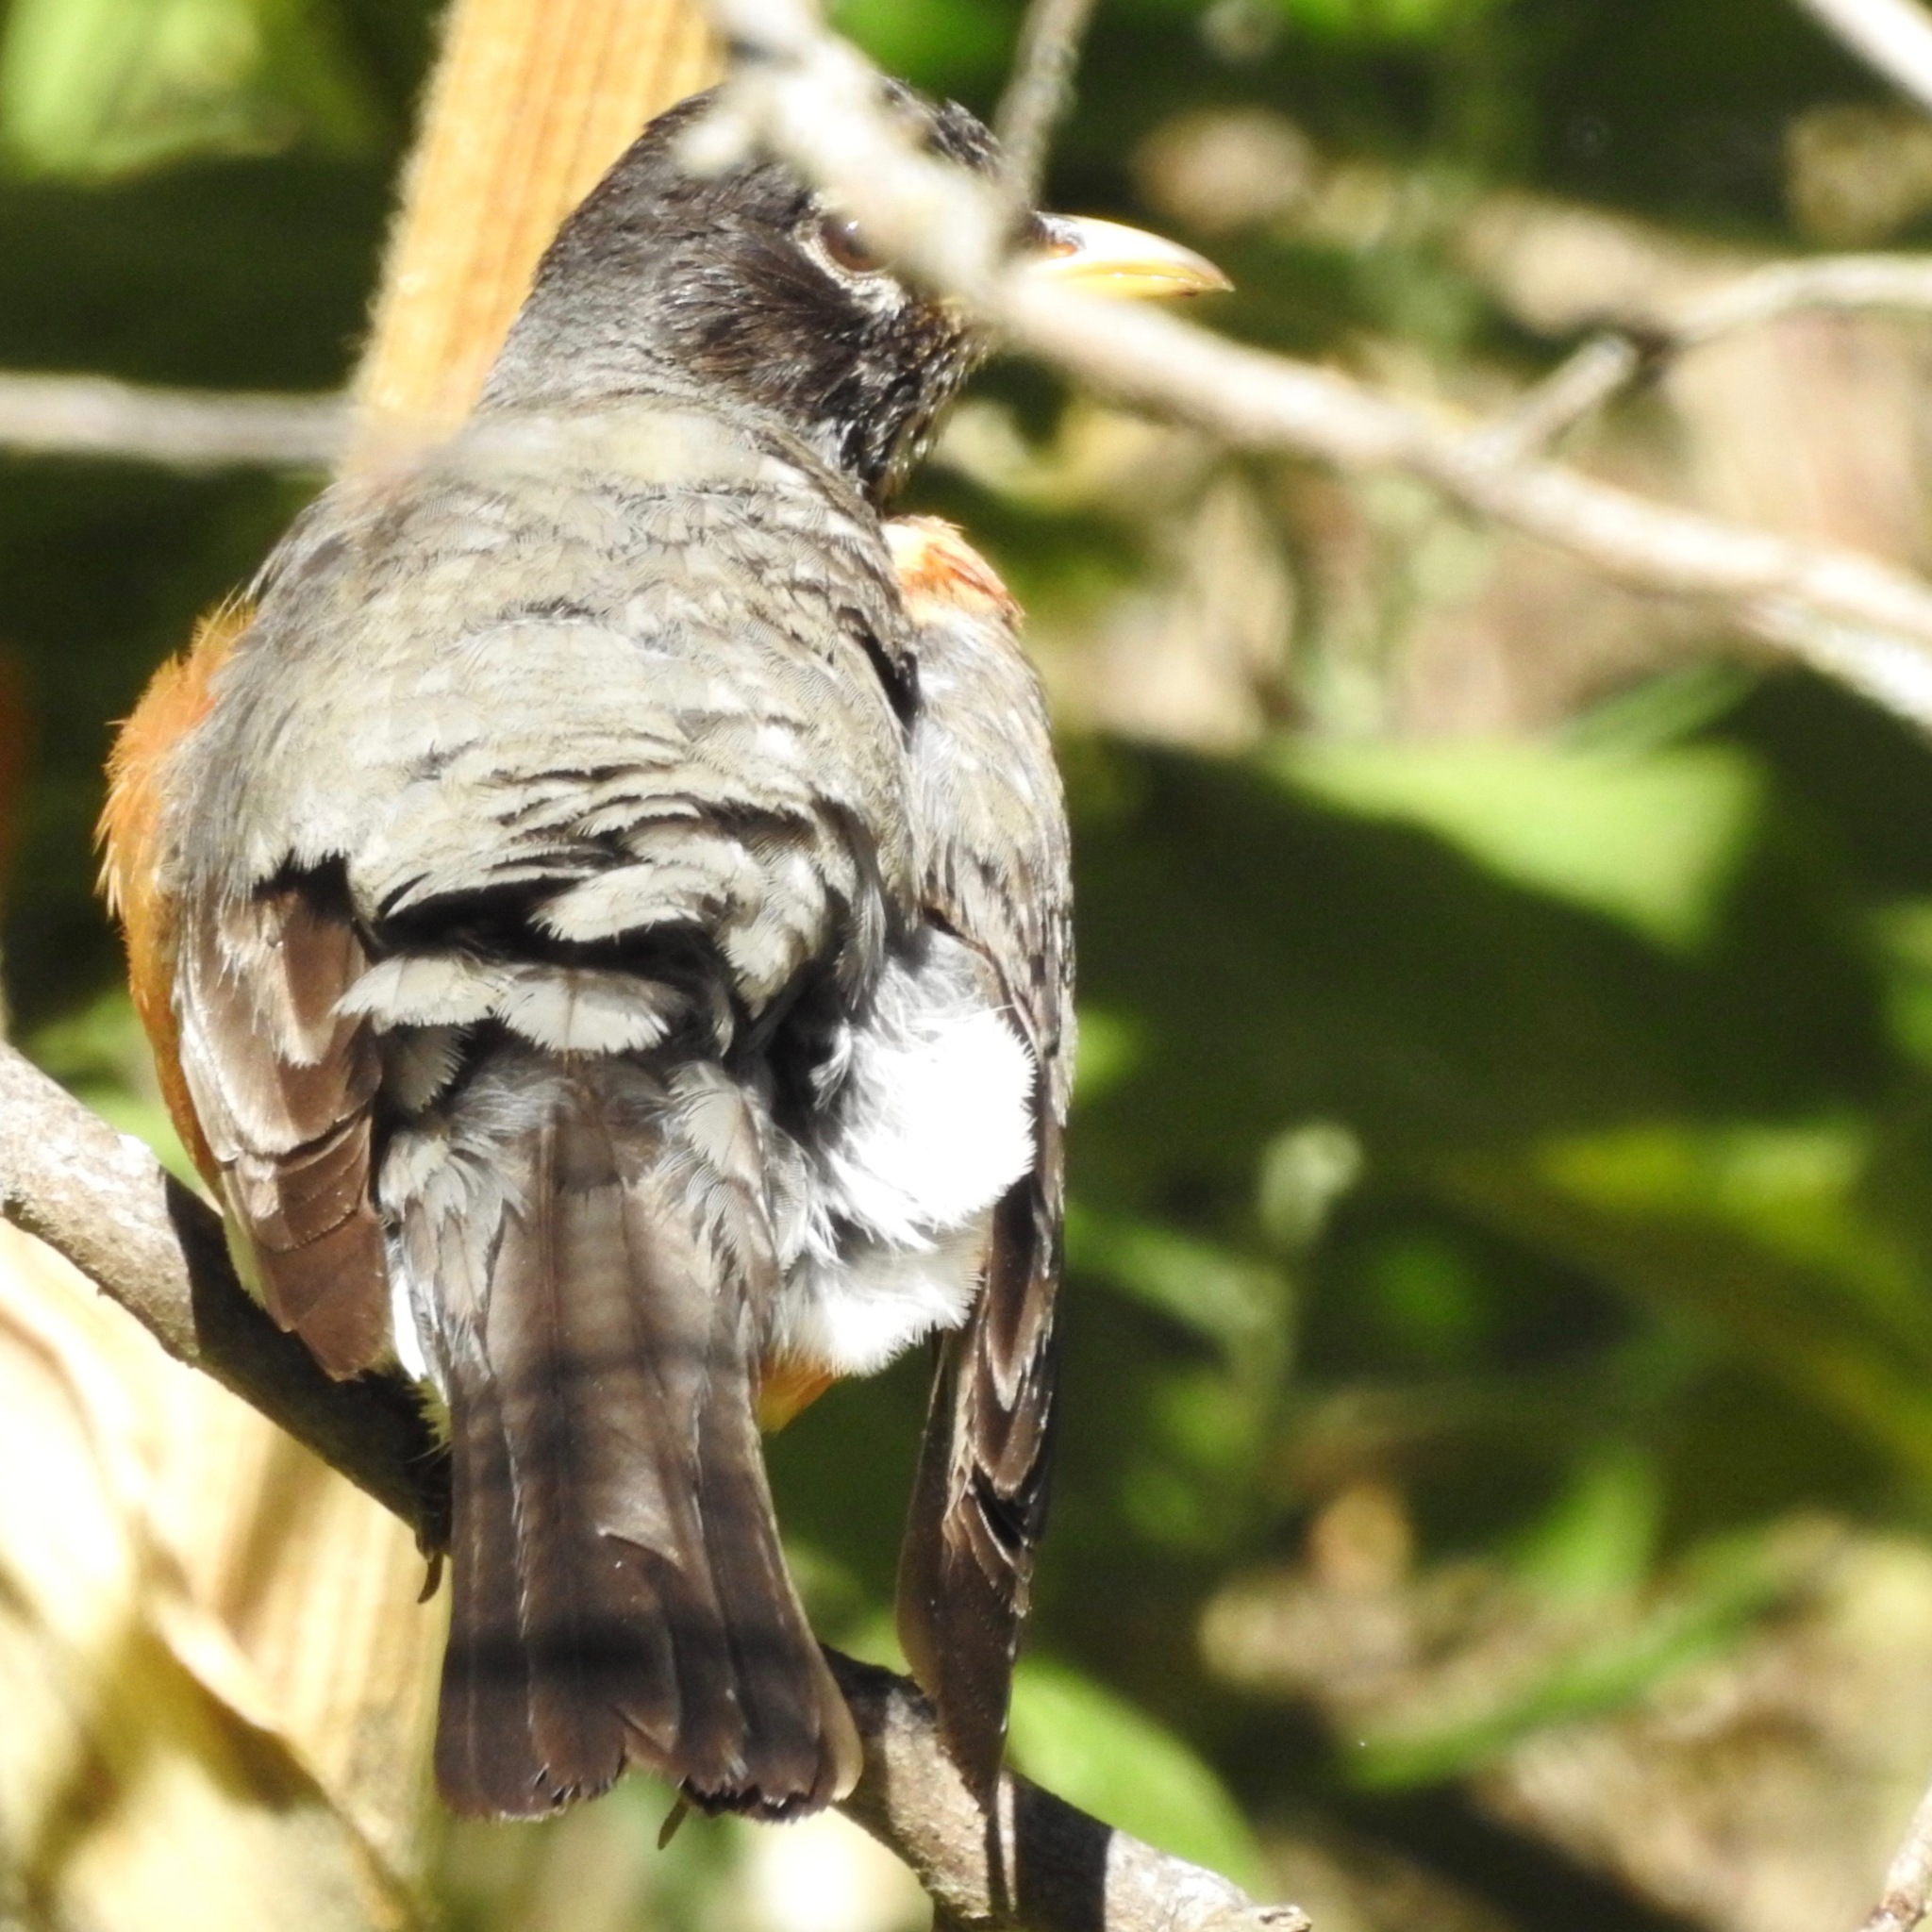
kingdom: Animalia
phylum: Chordata
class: Aves
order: Passeriformes
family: Turdidae
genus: Turdus
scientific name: Turdus migratorius
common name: American robin
